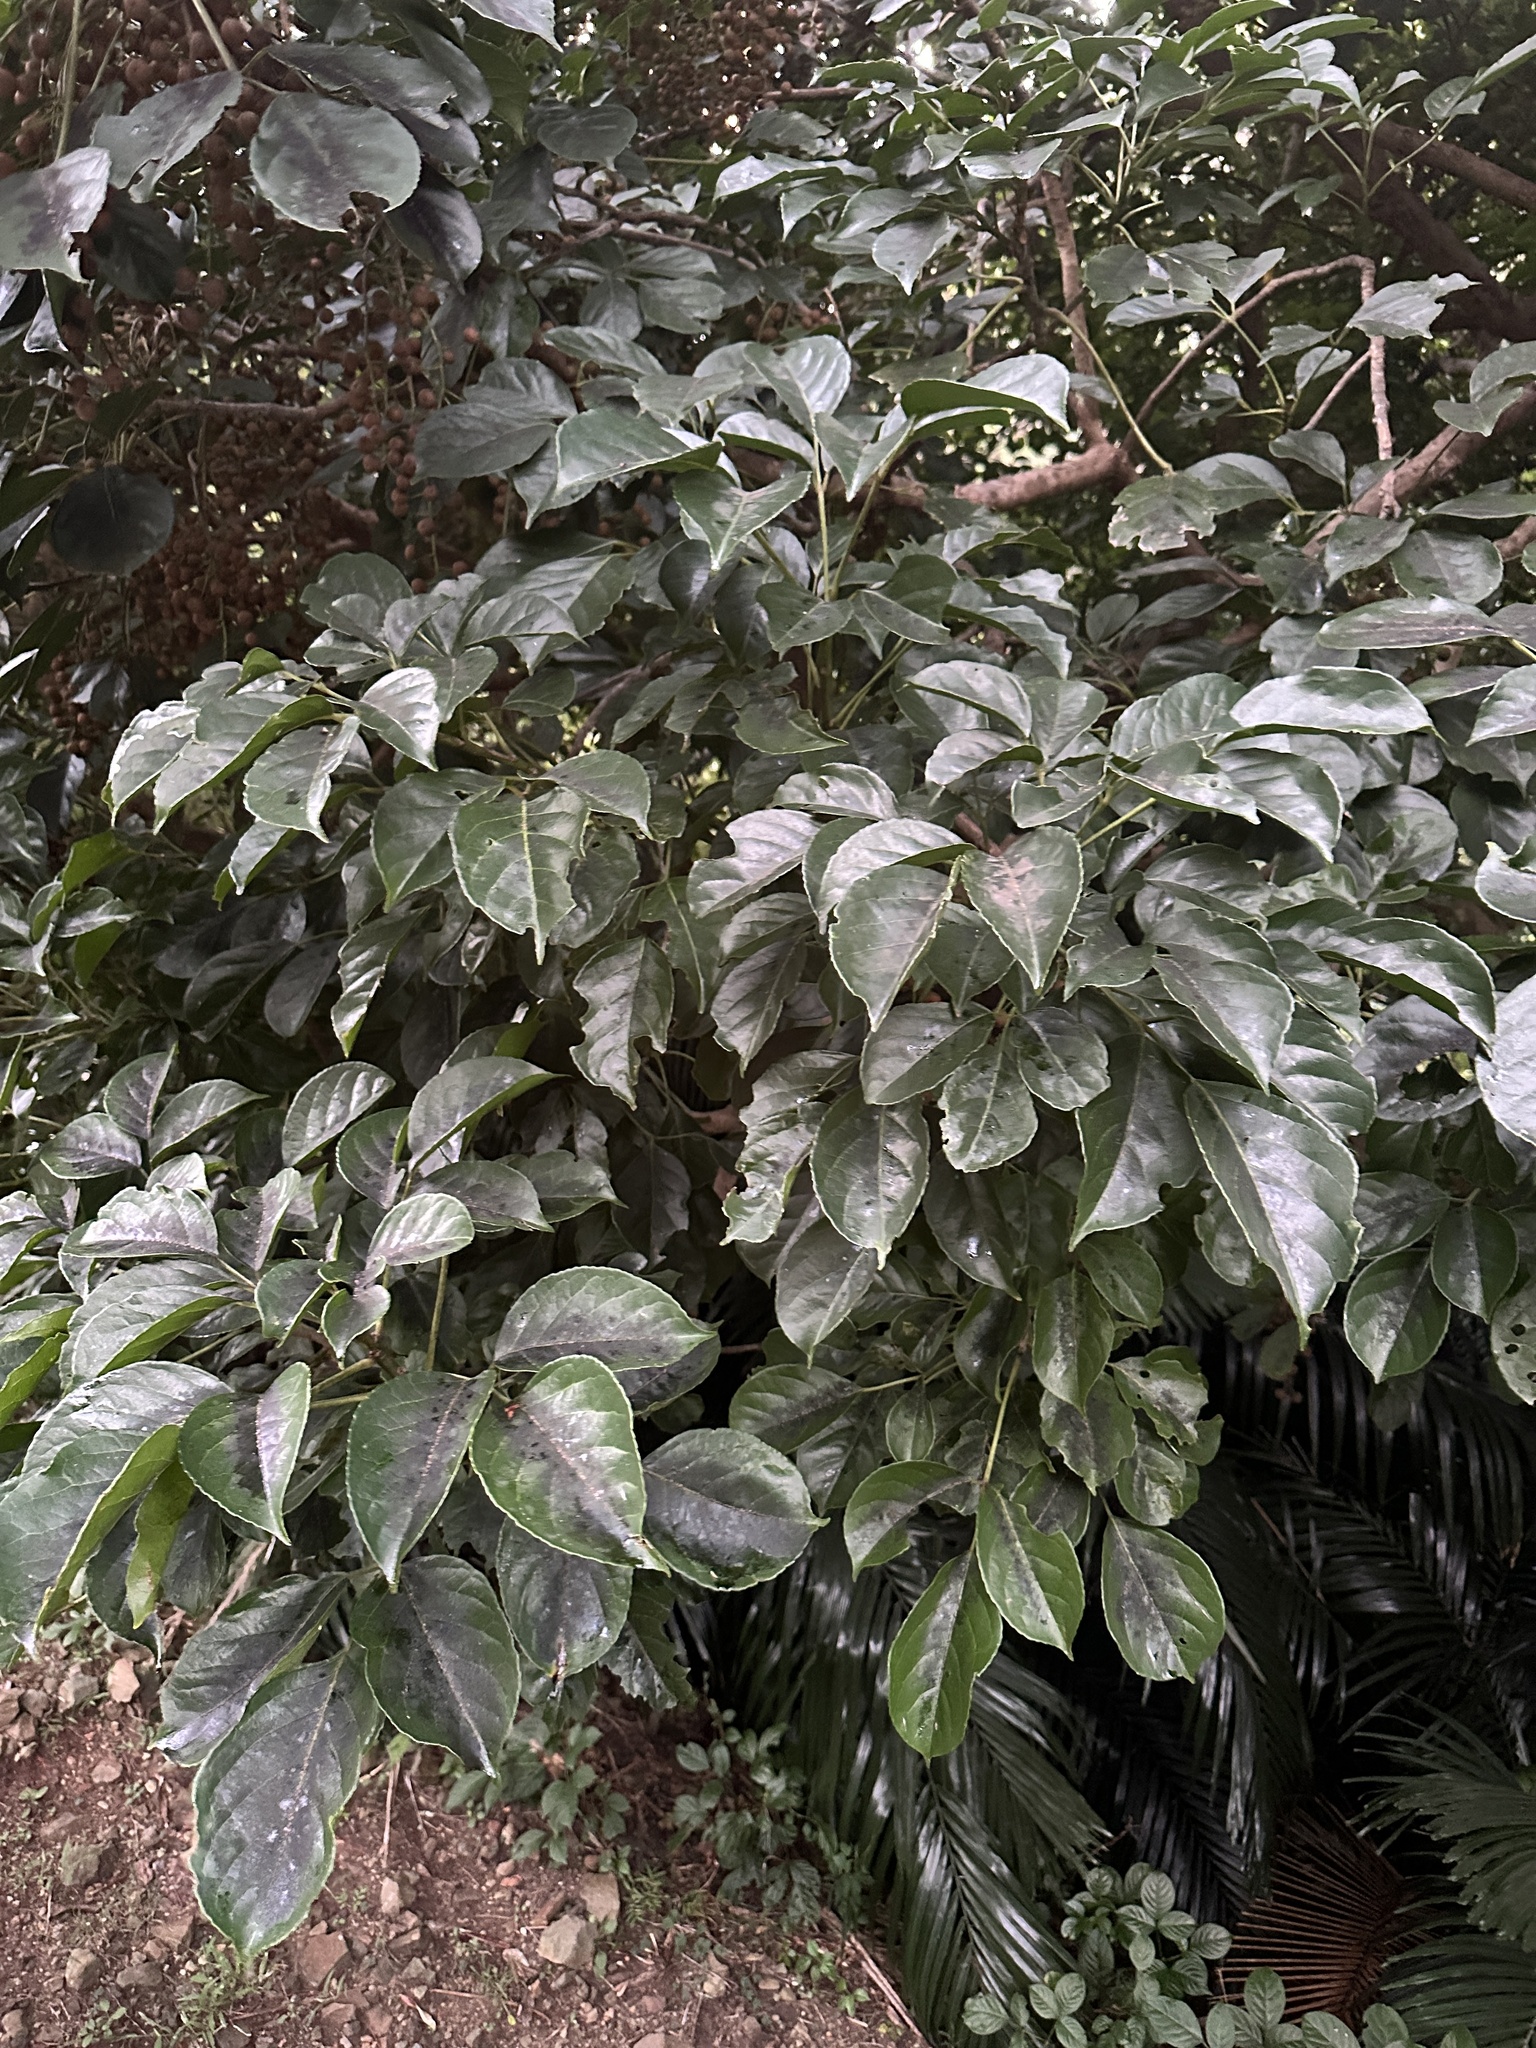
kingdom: Plantae
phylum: Tracheophyta
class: Magnoliopsida
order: Malpighiales
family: Phyllanthaceae
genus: Bischofia
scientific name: Bischofia javanica
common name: Javanese bishopwood
